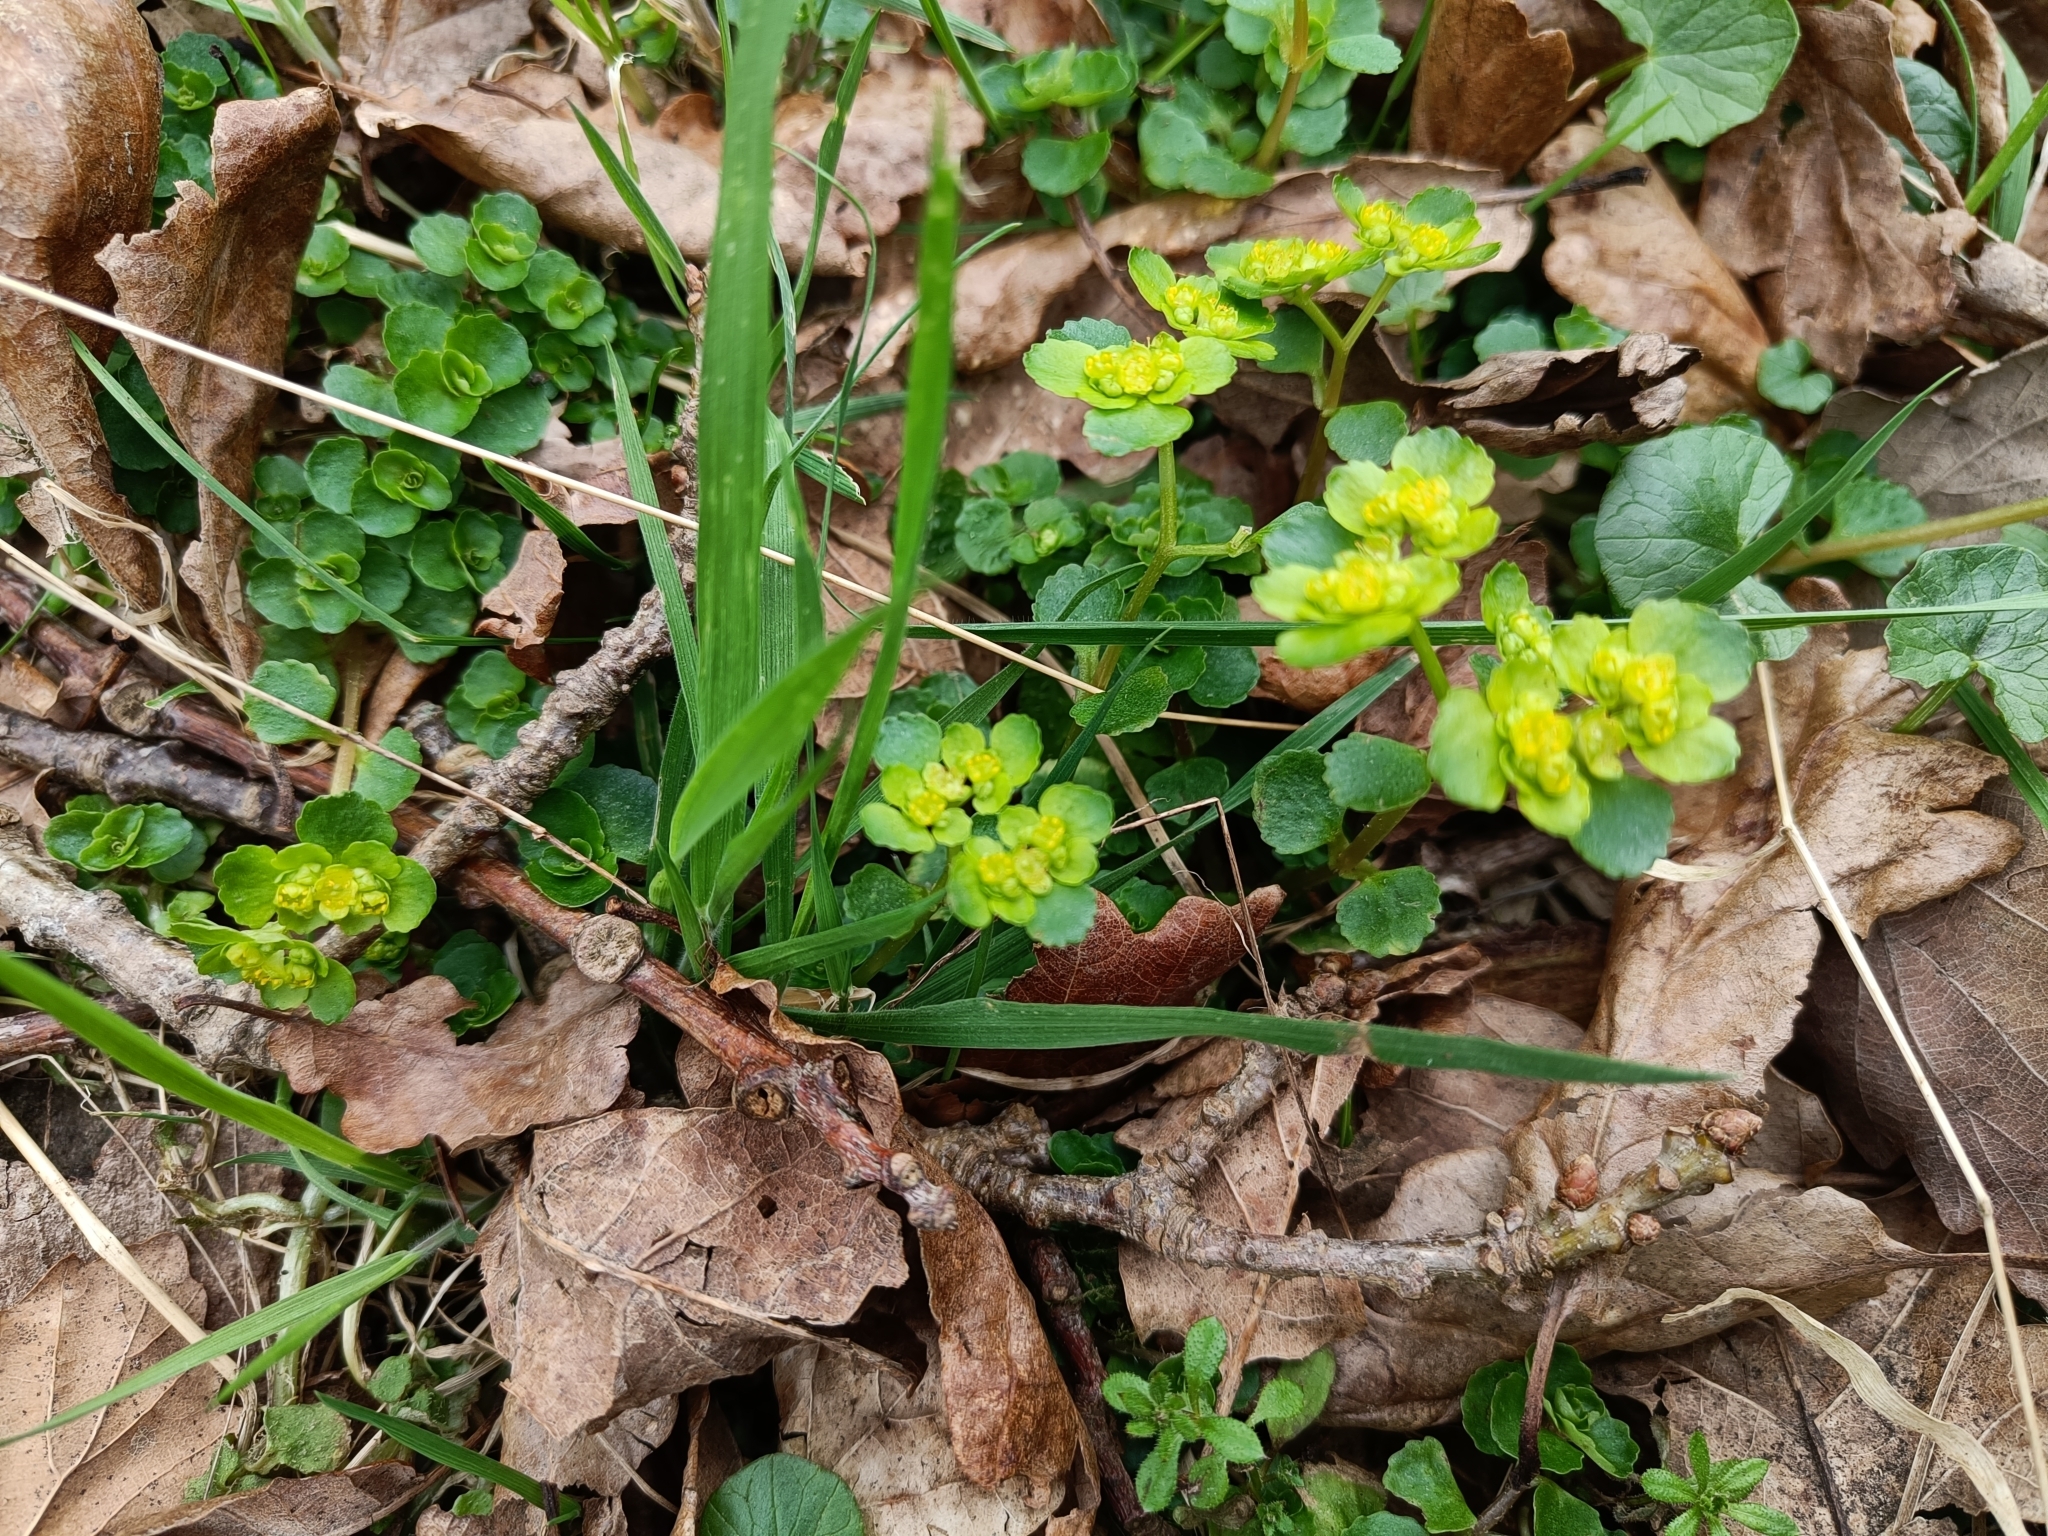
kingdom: Plantae
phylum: Tracheophyta
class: Magnoliopsida
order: Saxifragales
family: Saxifragaceae
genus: Chrysosplenium
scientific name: Chrysosplenium oppositifolium
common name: Opposite-leaved golden-saxifrage
